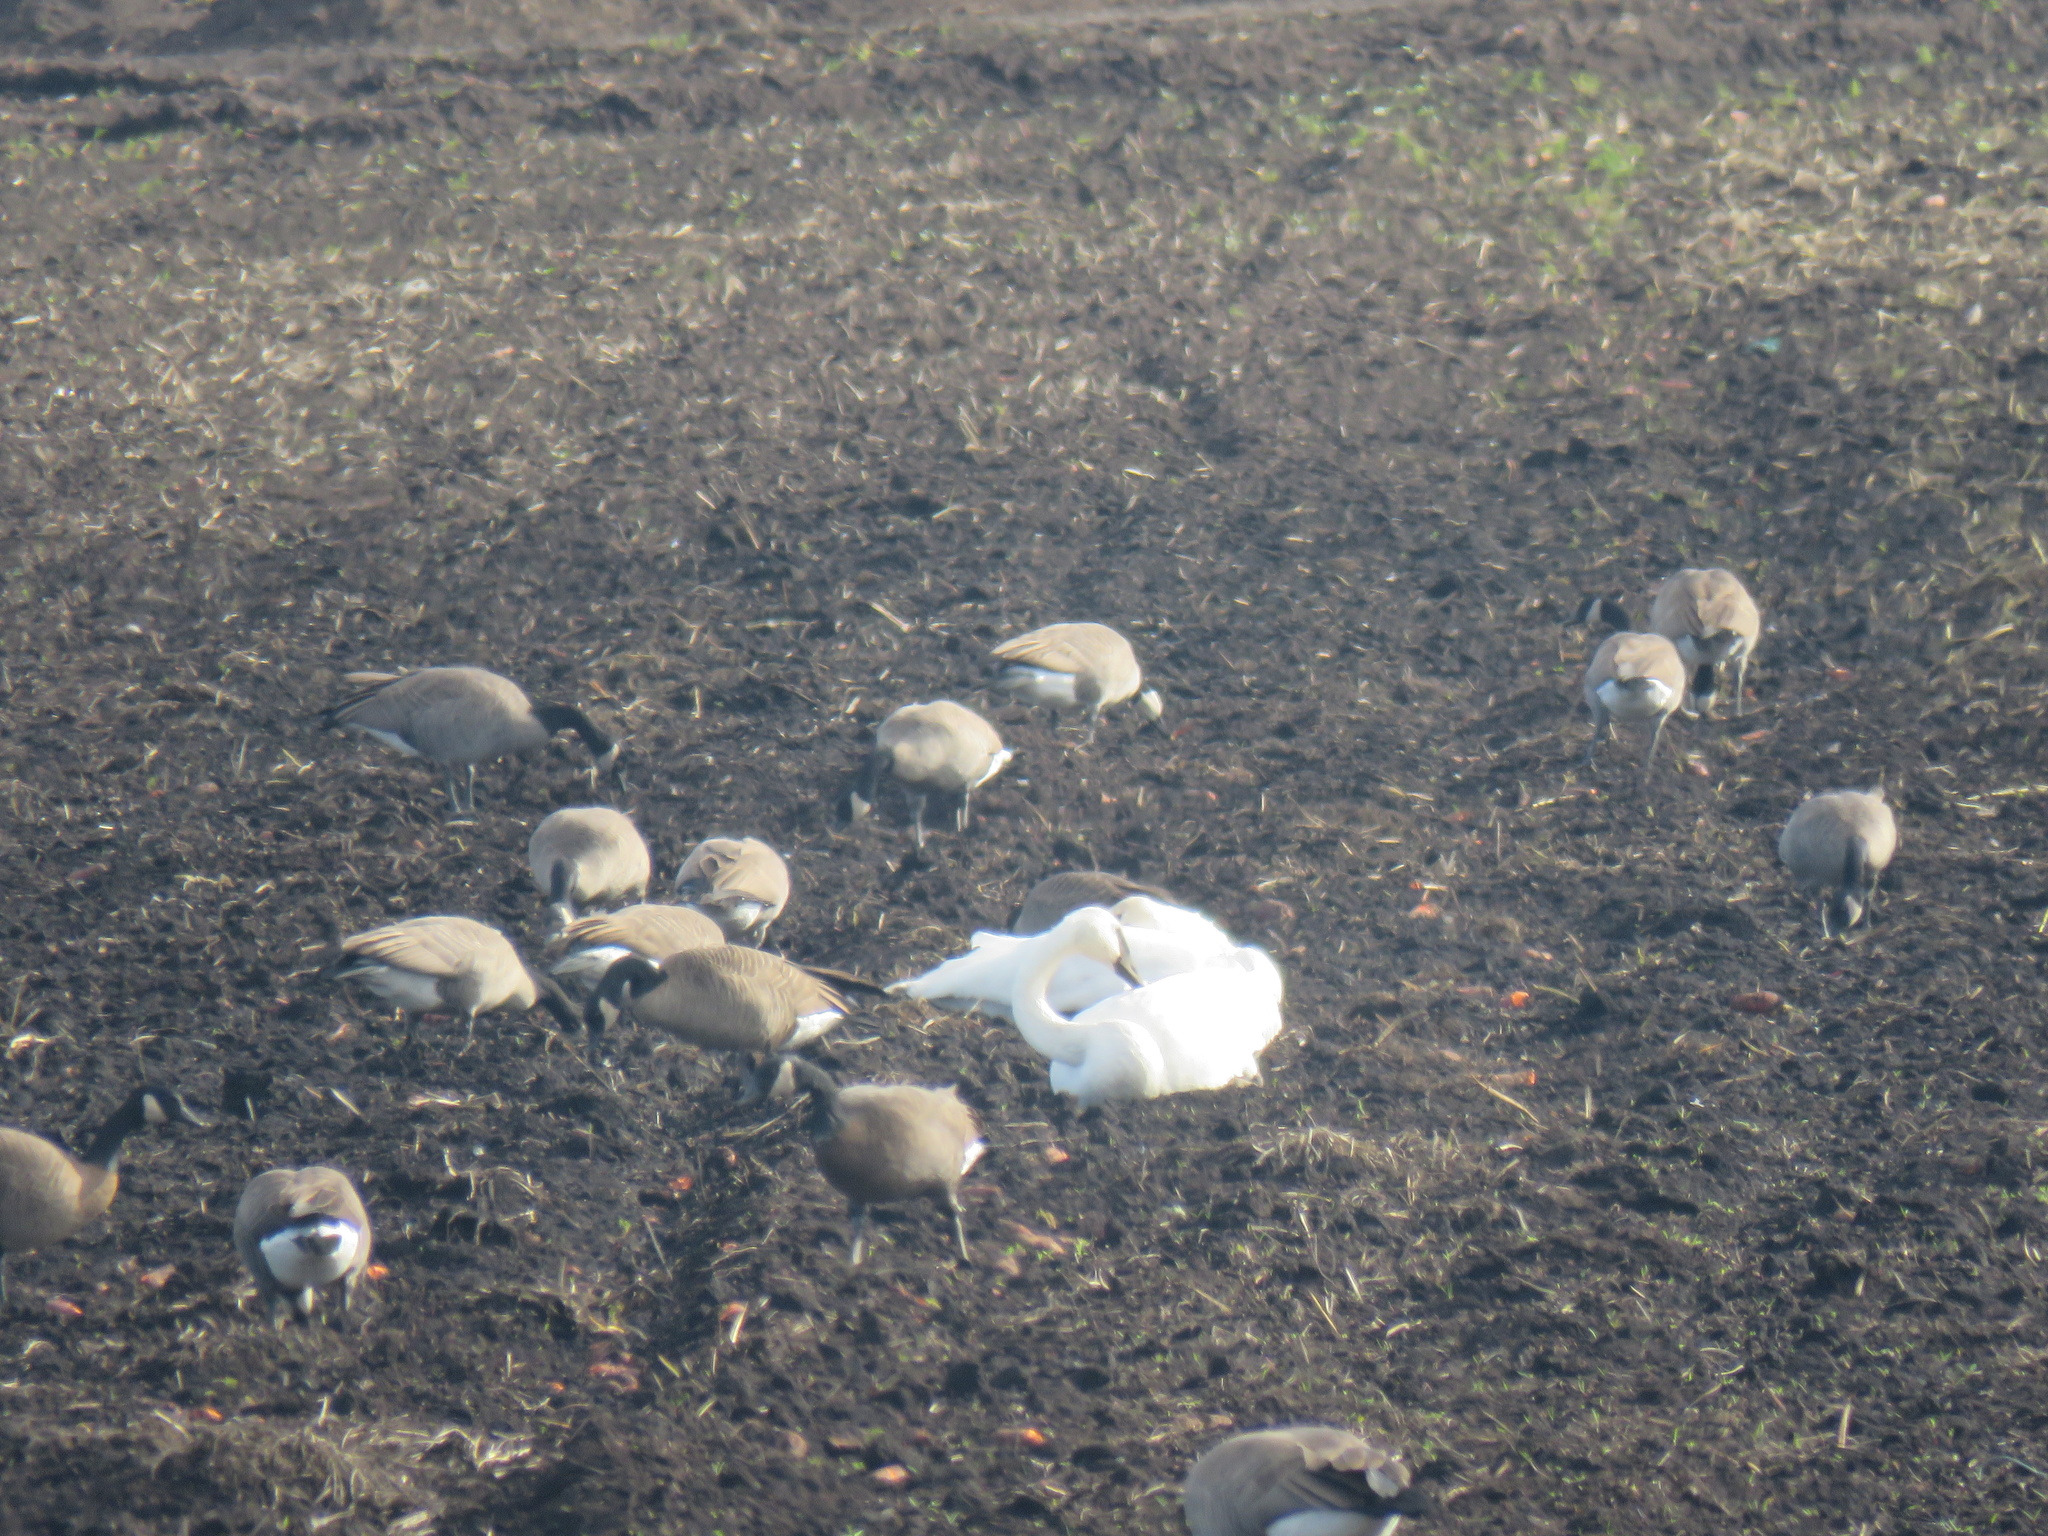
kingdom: Animalia
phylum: Chordata
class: Aves
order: Anseriformes
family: Anatidae
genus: Cygnus
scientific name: Cygnus buccinator
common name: Trumpeter swan
